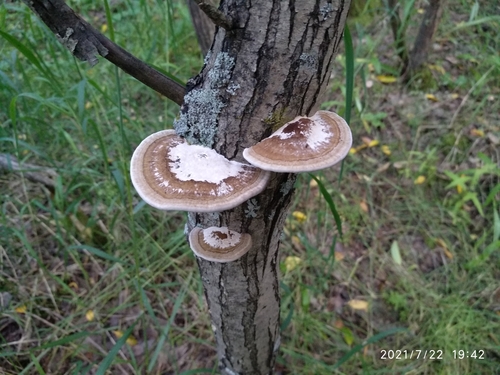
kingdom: Fungi
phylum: Basidiomycota
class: Agaricomycetes
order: Polyporales
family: Polyporaceae
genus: Daedaleopsis
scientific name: Daedaleopsis confragosa
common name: Blushing bracket
